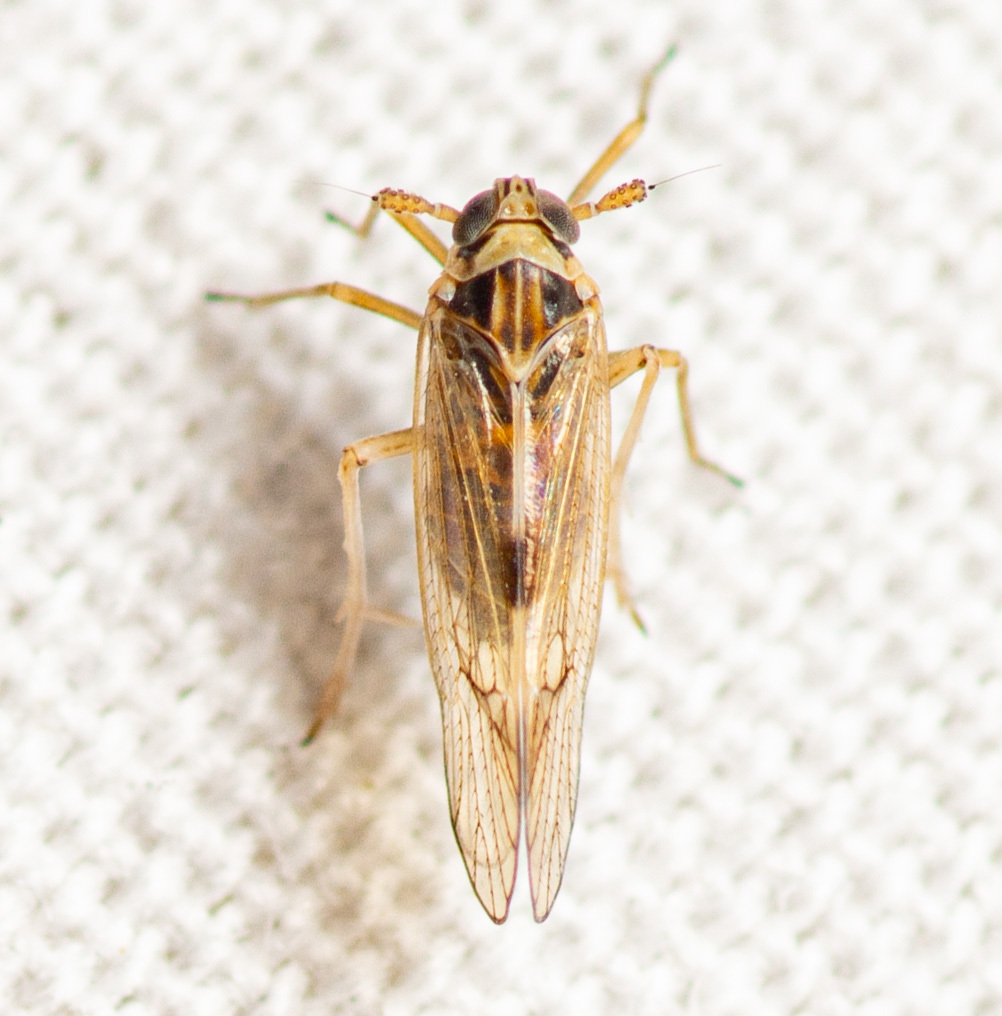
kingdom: Animalia
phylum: Arthropoda
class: Insecta
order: Hemiptera
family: Delphacidae
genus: Chionomus
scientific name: Chionomus
